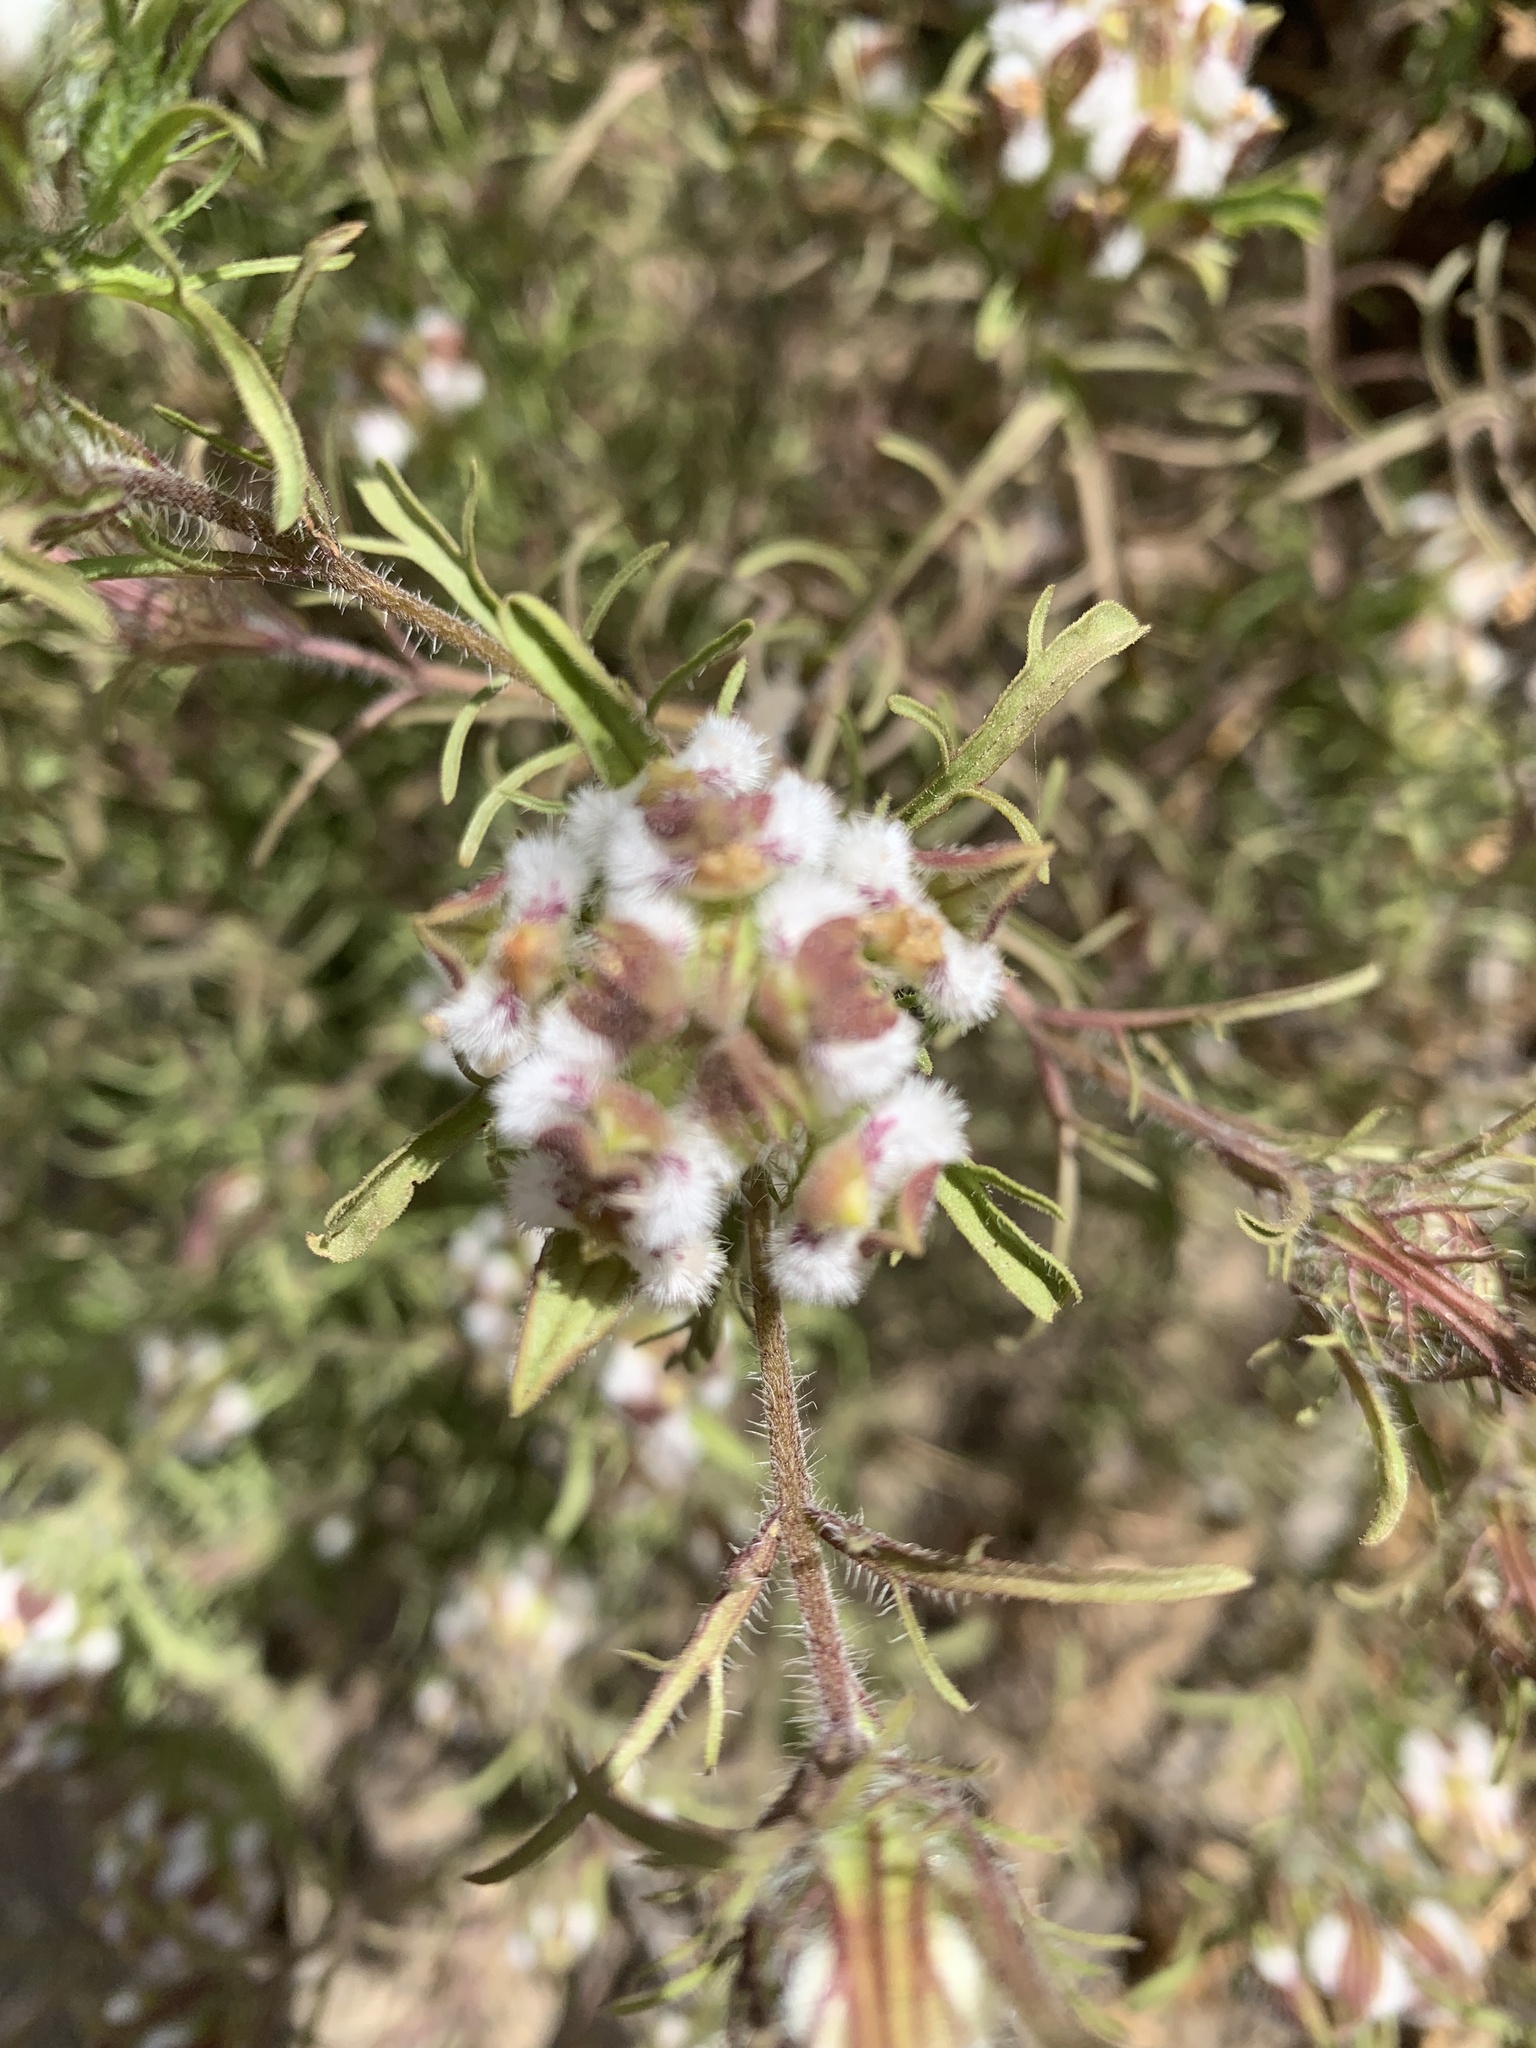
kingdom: Plantae
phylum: Tracheophyta
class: Magnoliopsida
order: Lamiales
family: Orobanchaceae
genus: Dicranostegia
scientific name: Dicranostegia orcuttiana
